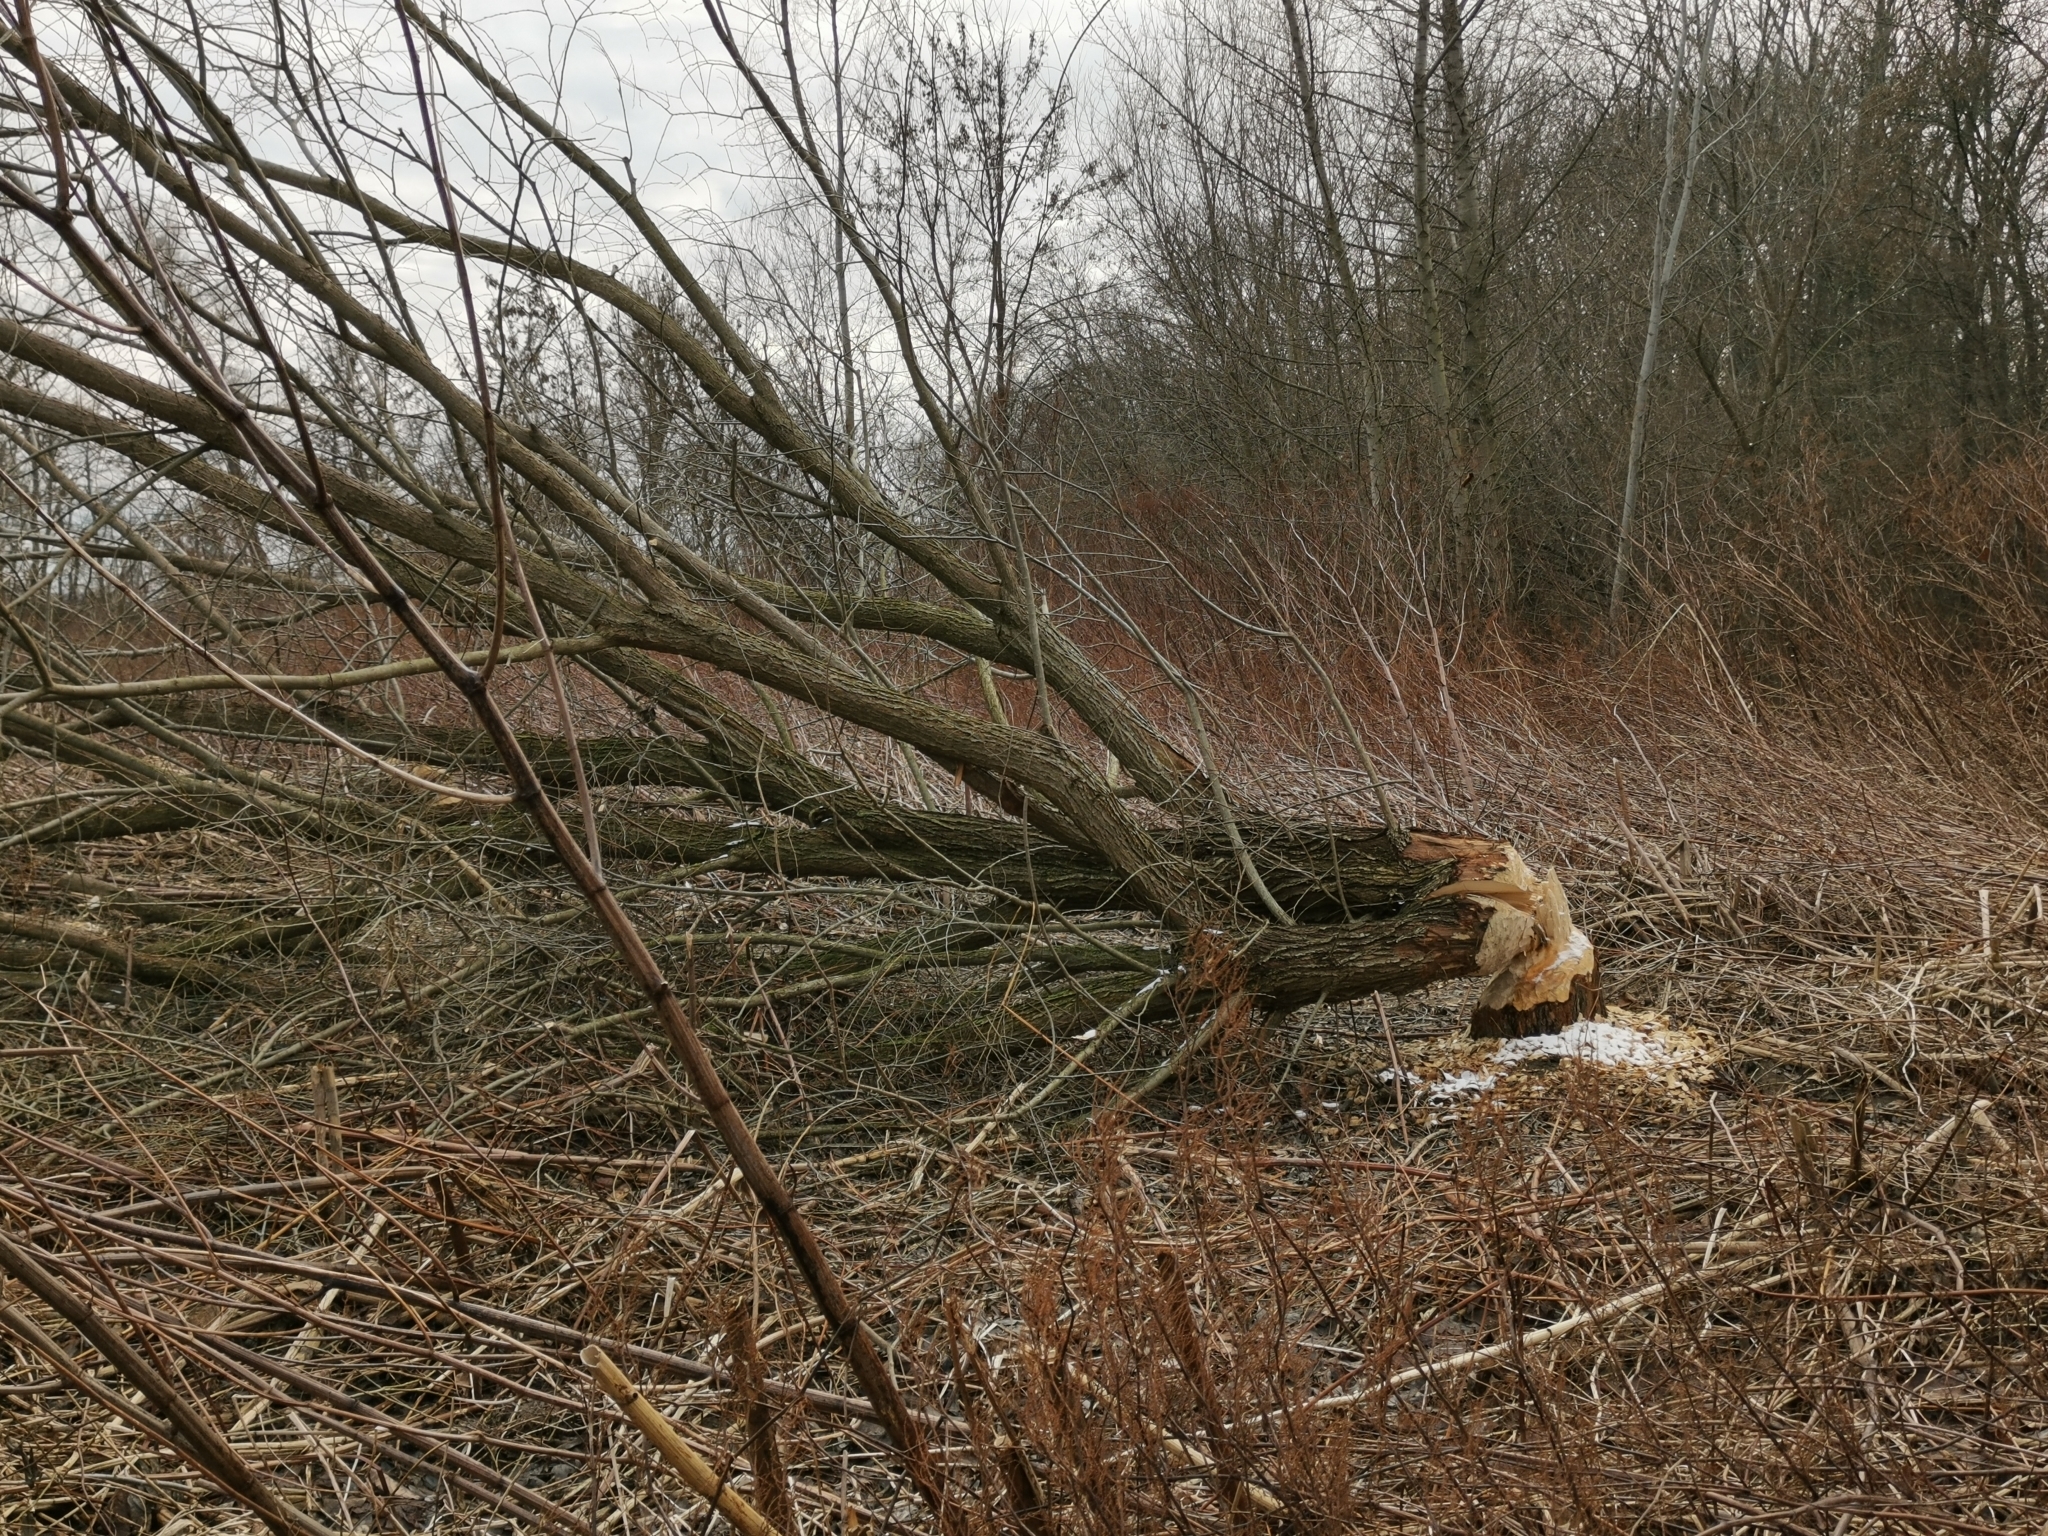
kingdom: Animalia
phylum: Chordata
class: Mammalia
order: Rodentia
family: Castoridae
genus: Castor
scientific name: Castor fiber
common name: Eurasian beaver
